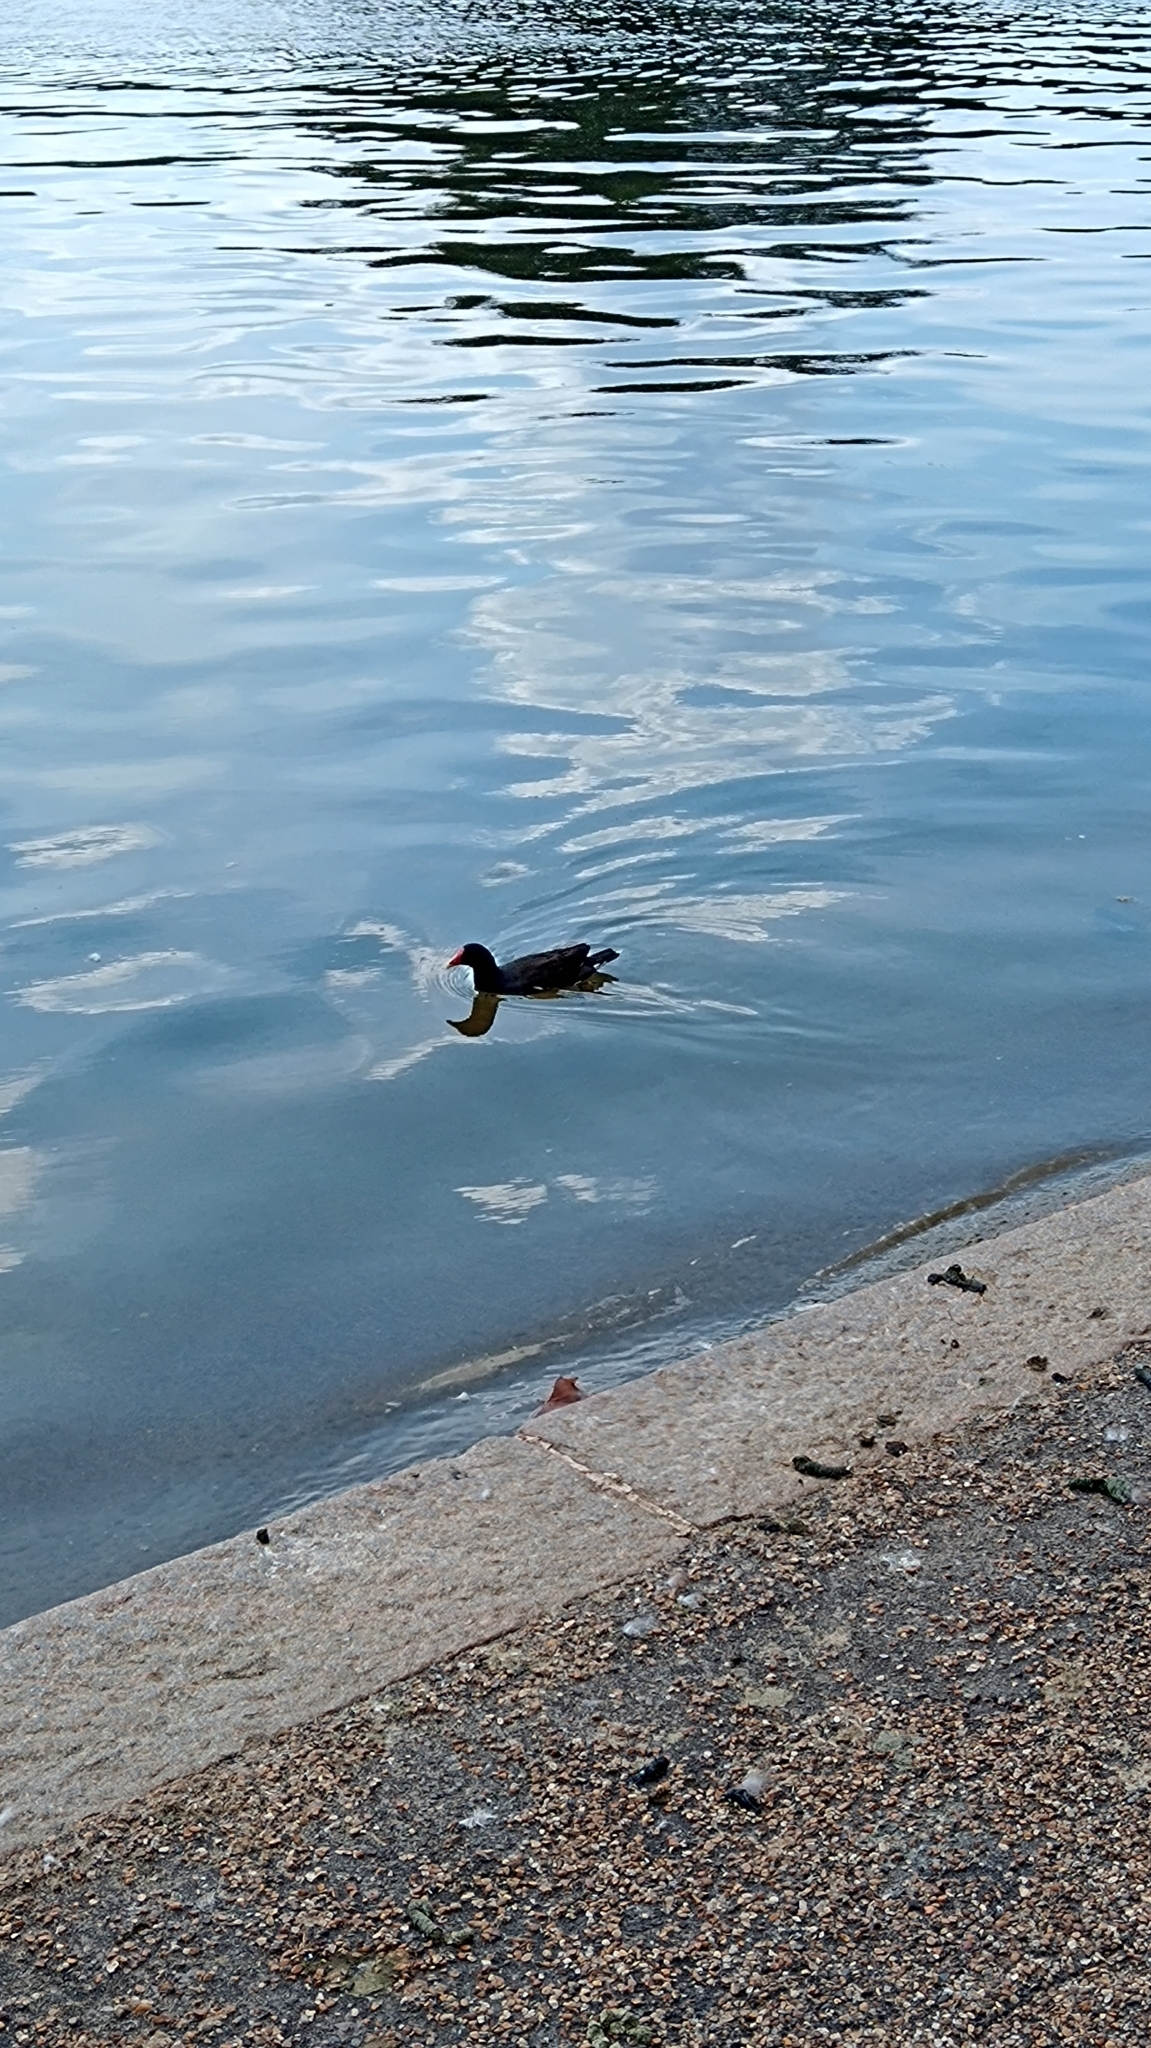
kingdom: Animalia
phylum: Chordata
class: Aves
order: Gruiformes
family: Rallidae
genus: Gallinula
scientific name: Gallinula chloropus
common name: Common moorhen
